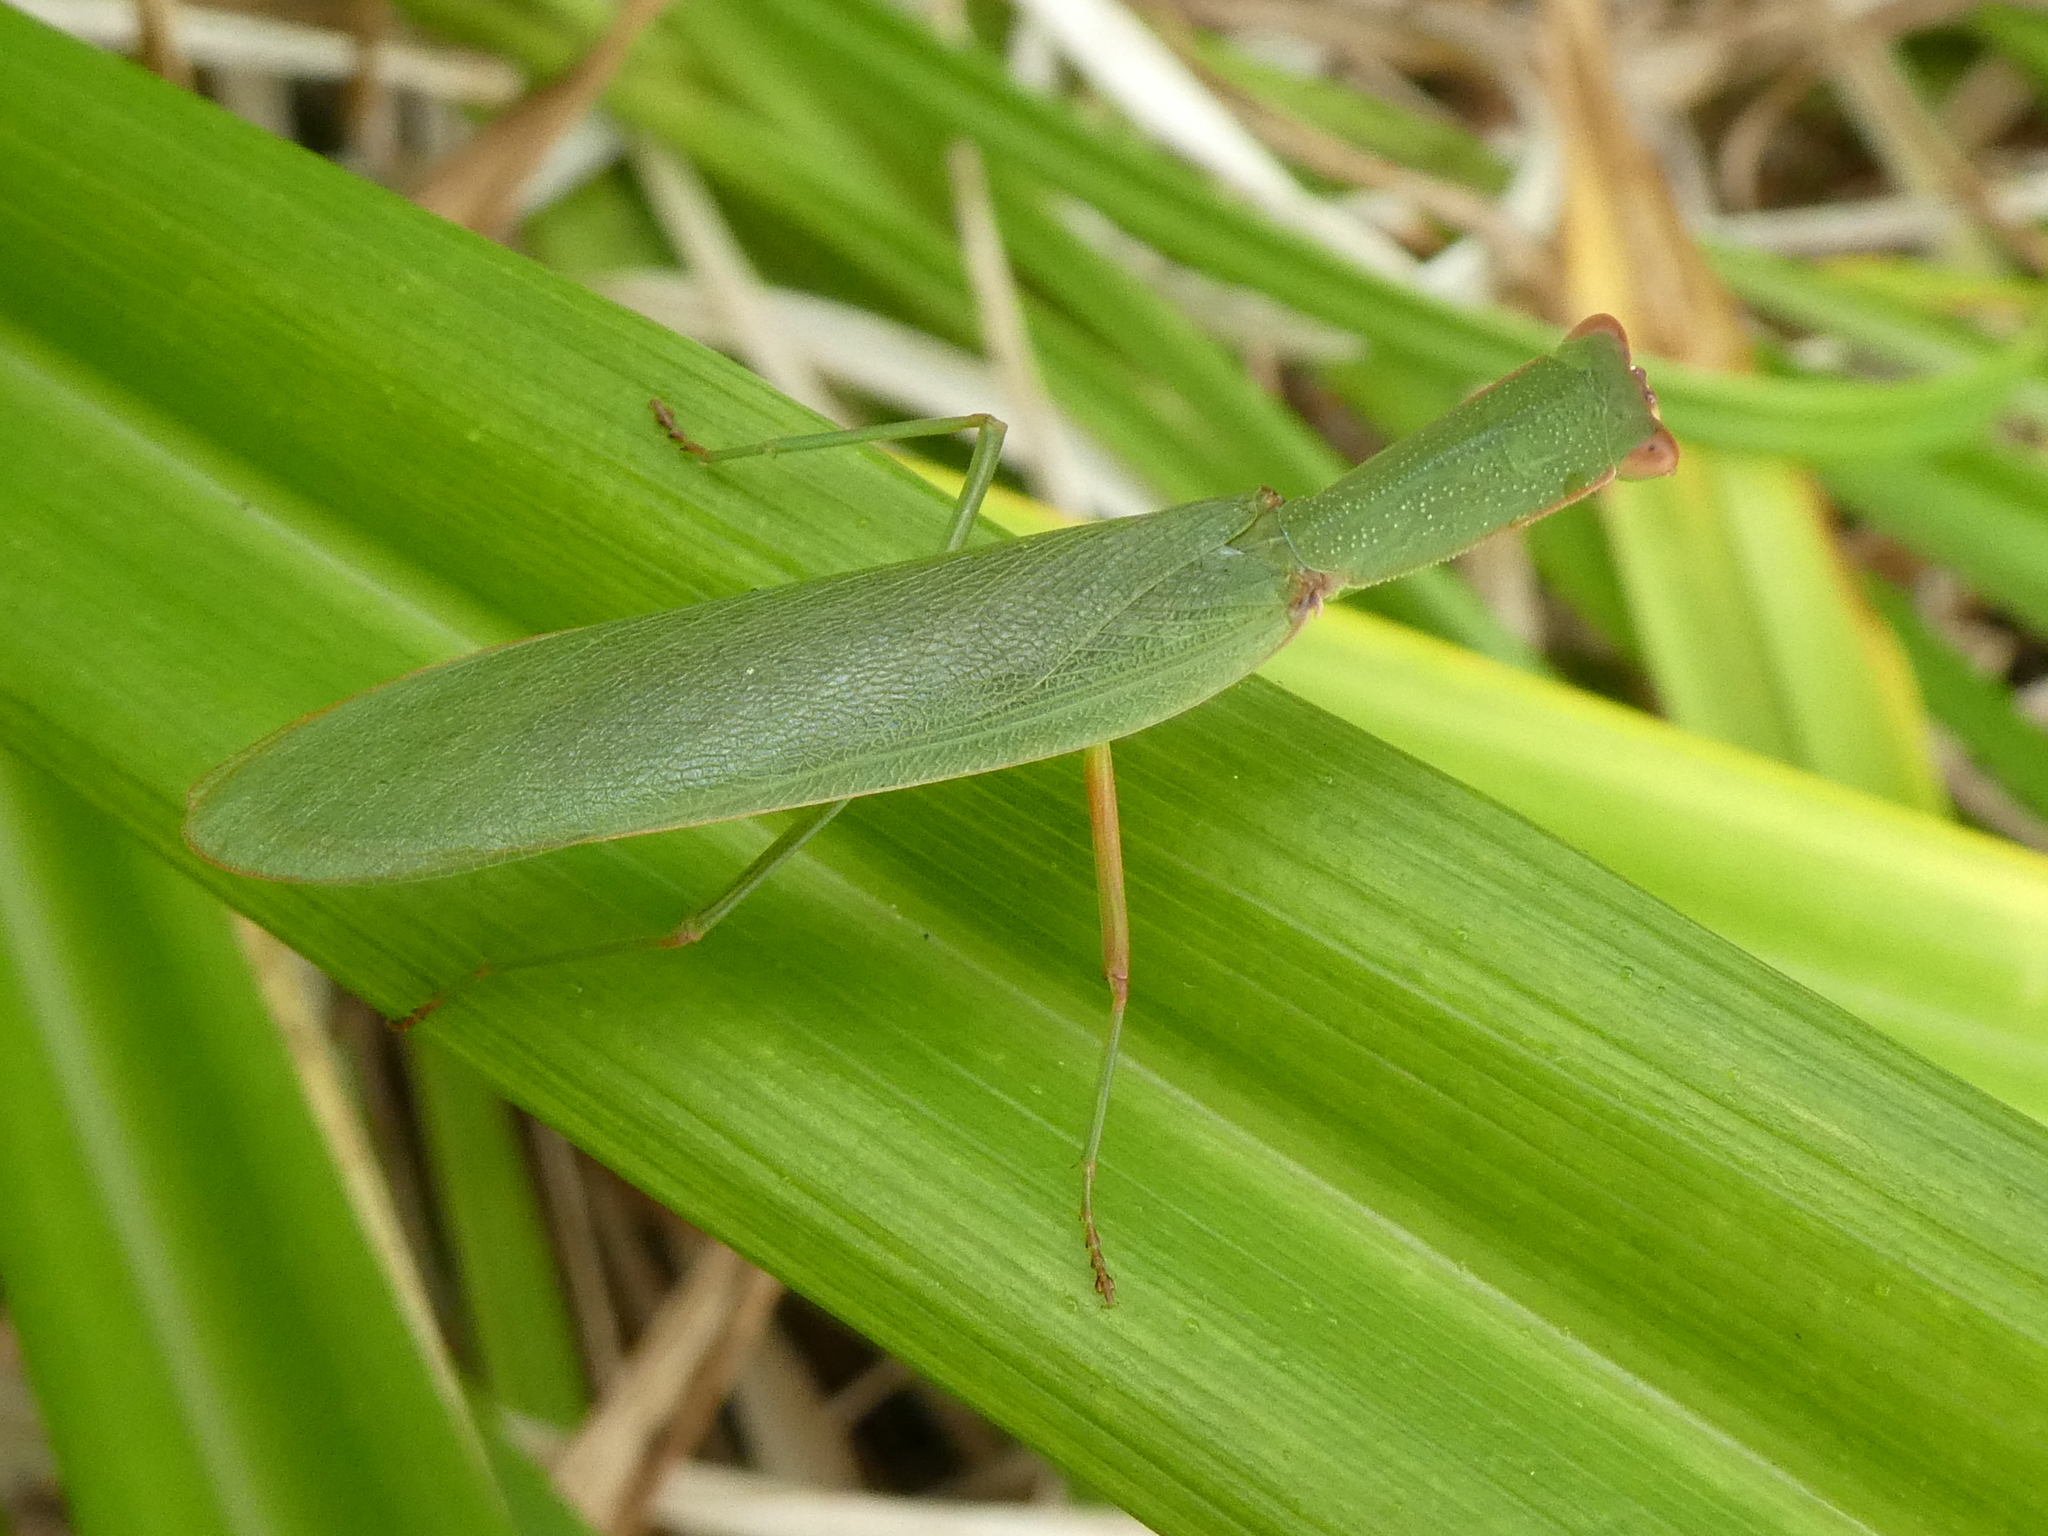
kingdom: Animalia
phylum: Arthropoda
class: Insecta
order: Mantodea
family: Mantidae
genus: Orthodera
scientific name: Orthodera novaezealandiae
